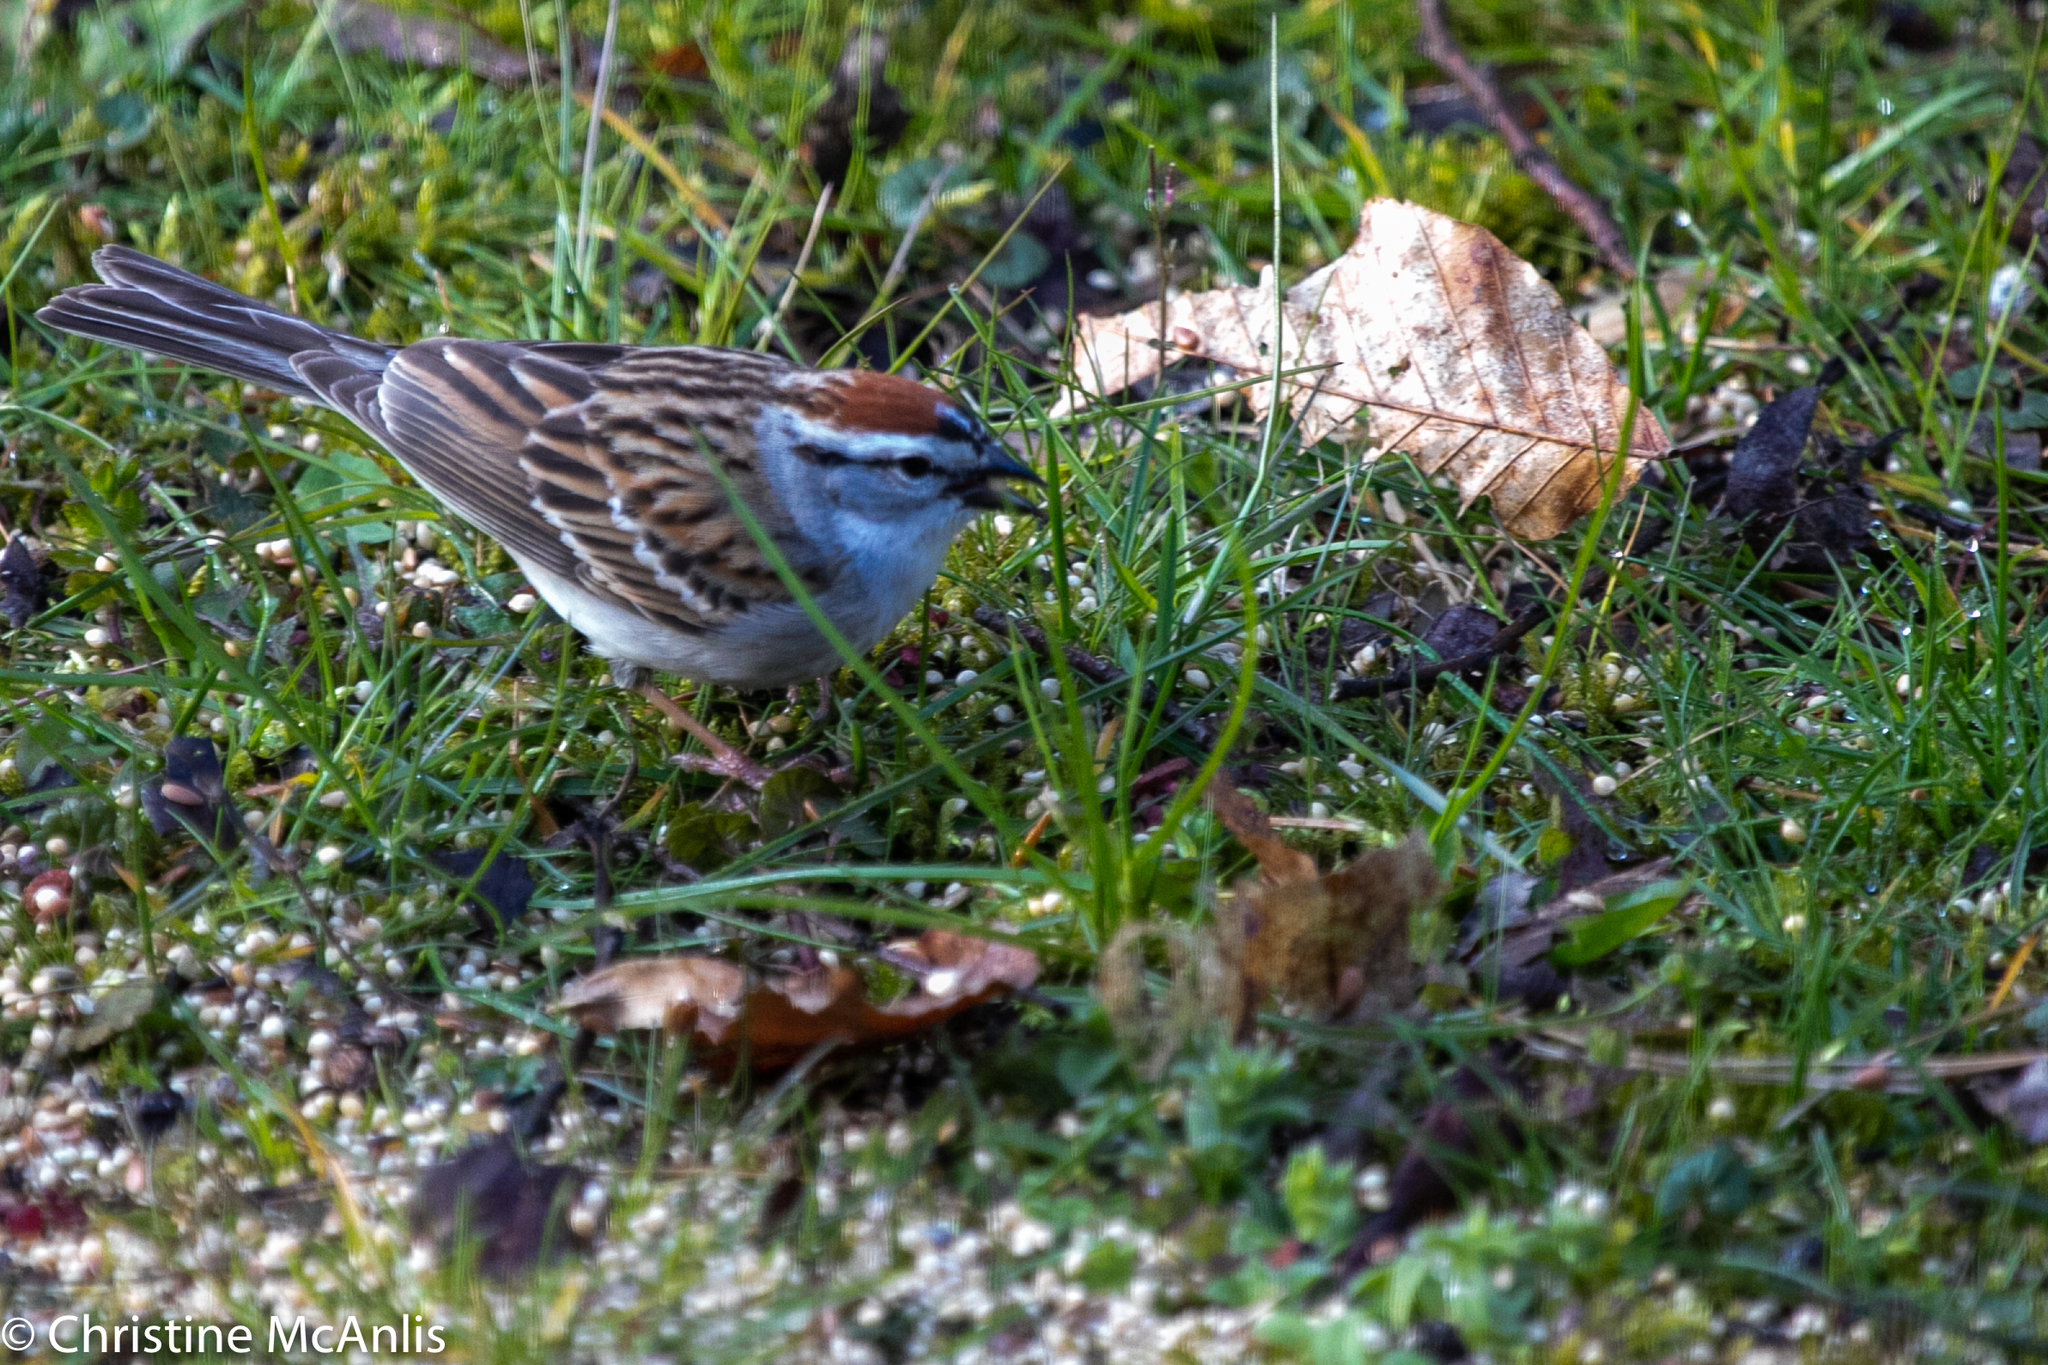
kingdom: Animalia
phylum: Chordata
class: Aves
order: Passeriformes
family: Passerellidae
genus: Spizella
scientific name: Spizella passerina
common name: Chipping sparrow
